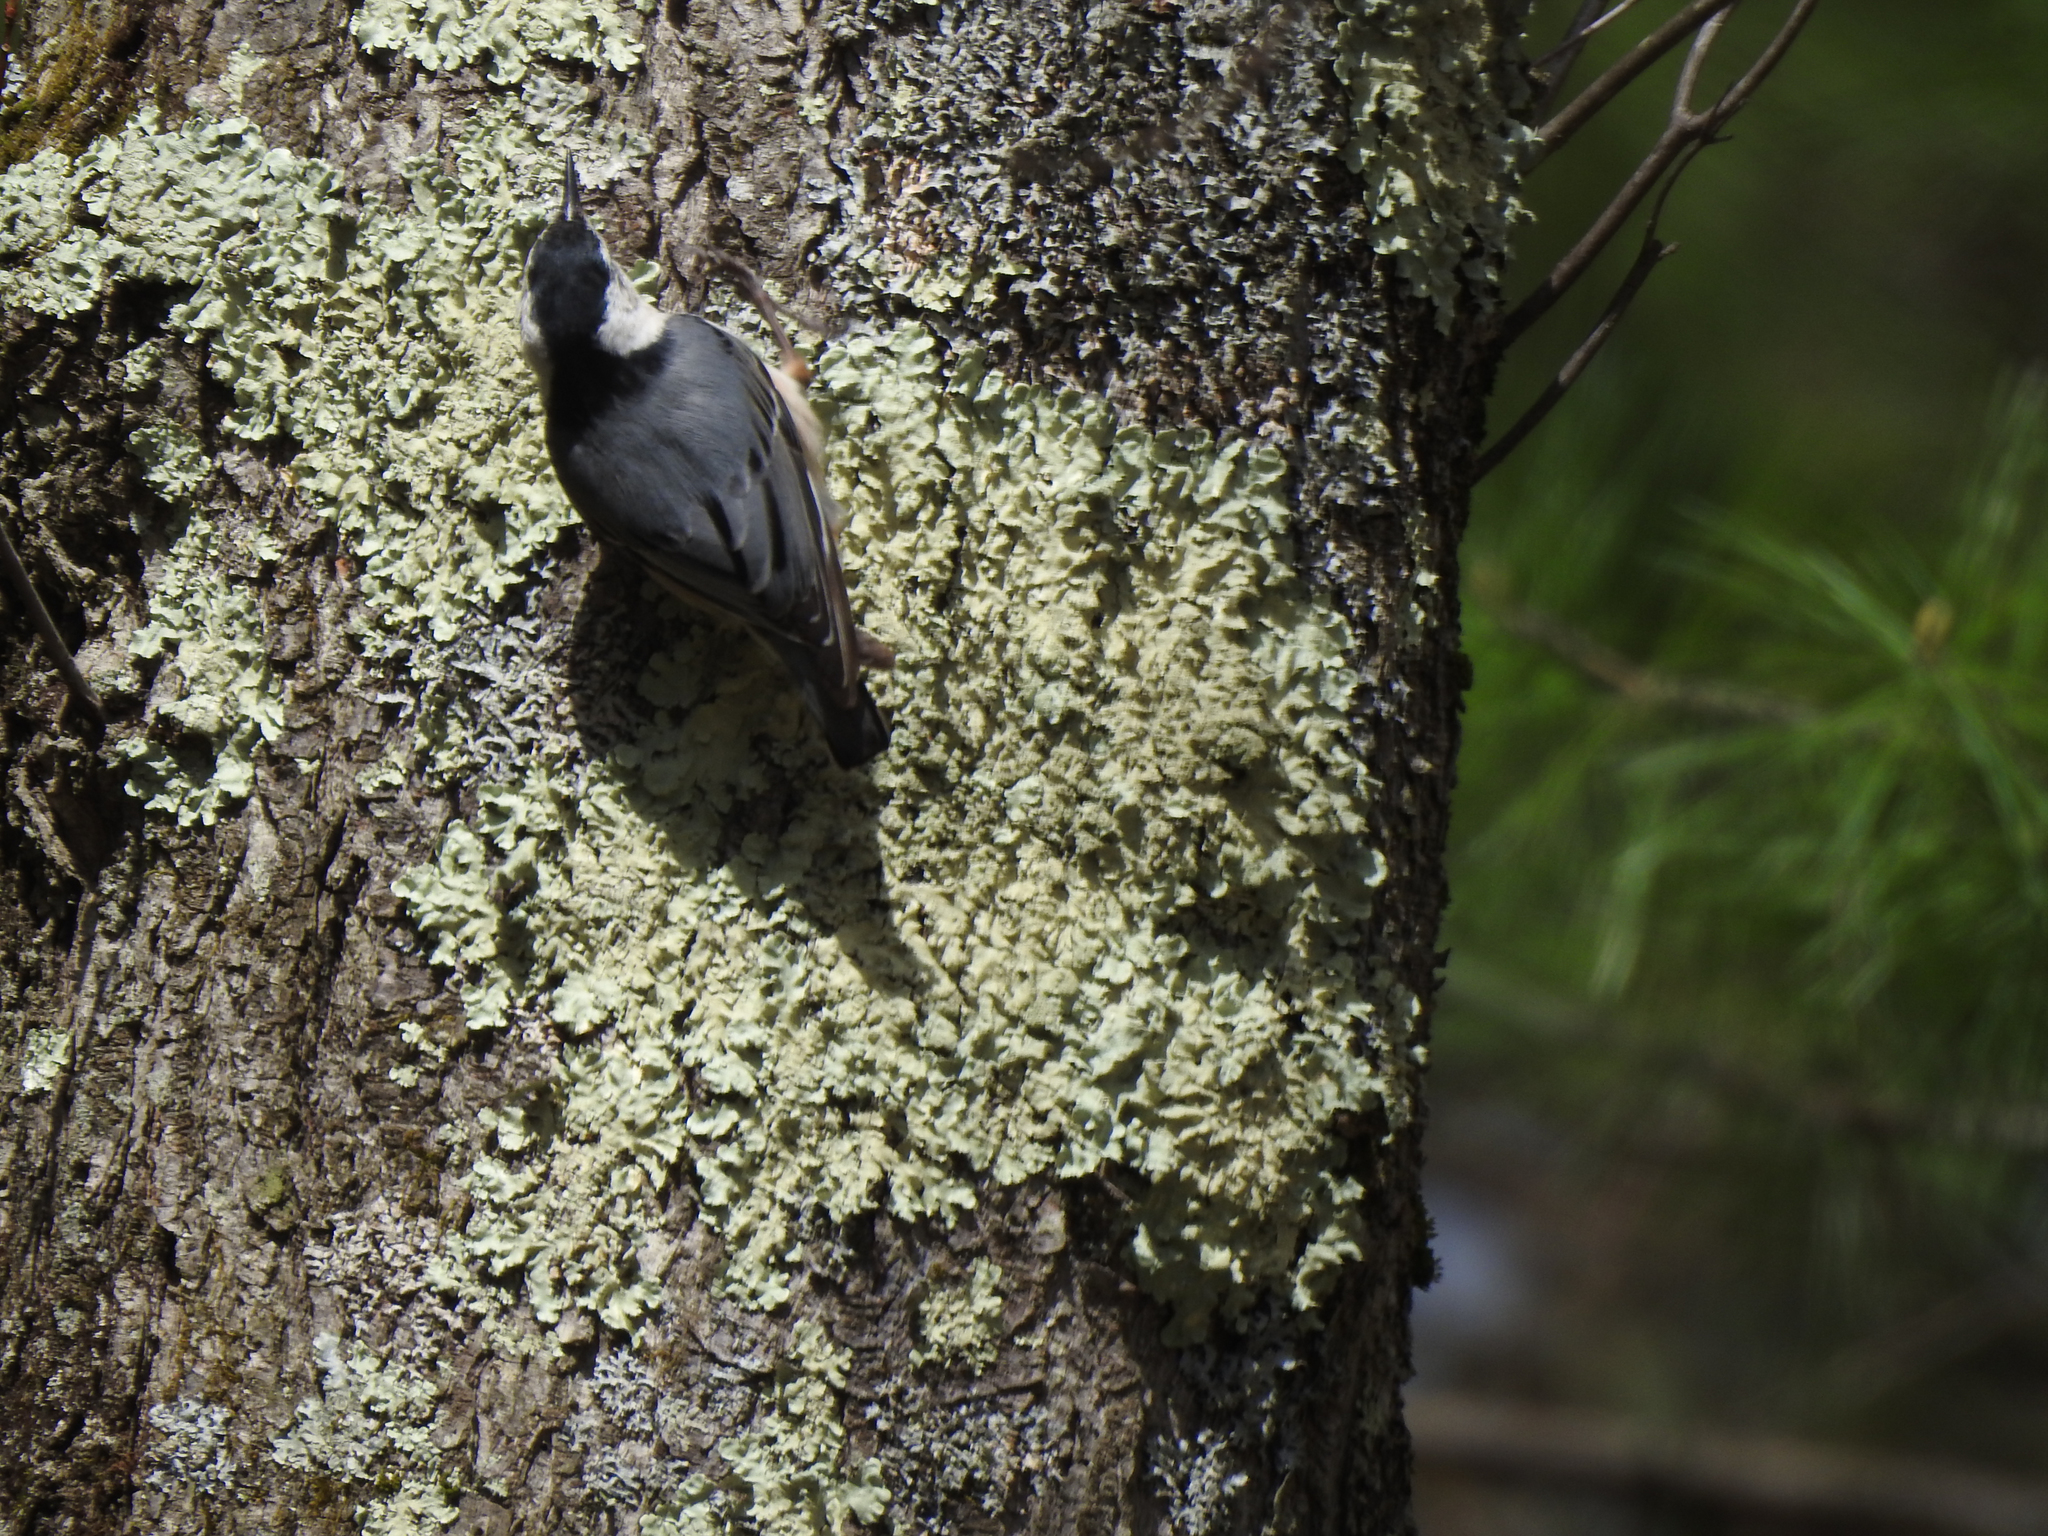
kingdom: Animalia
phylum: Chordata
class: Aves
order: Passeriformes
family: Sittidae
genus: Sitta
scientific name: Sitta carolinensis
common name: White-breasted nuthatch
